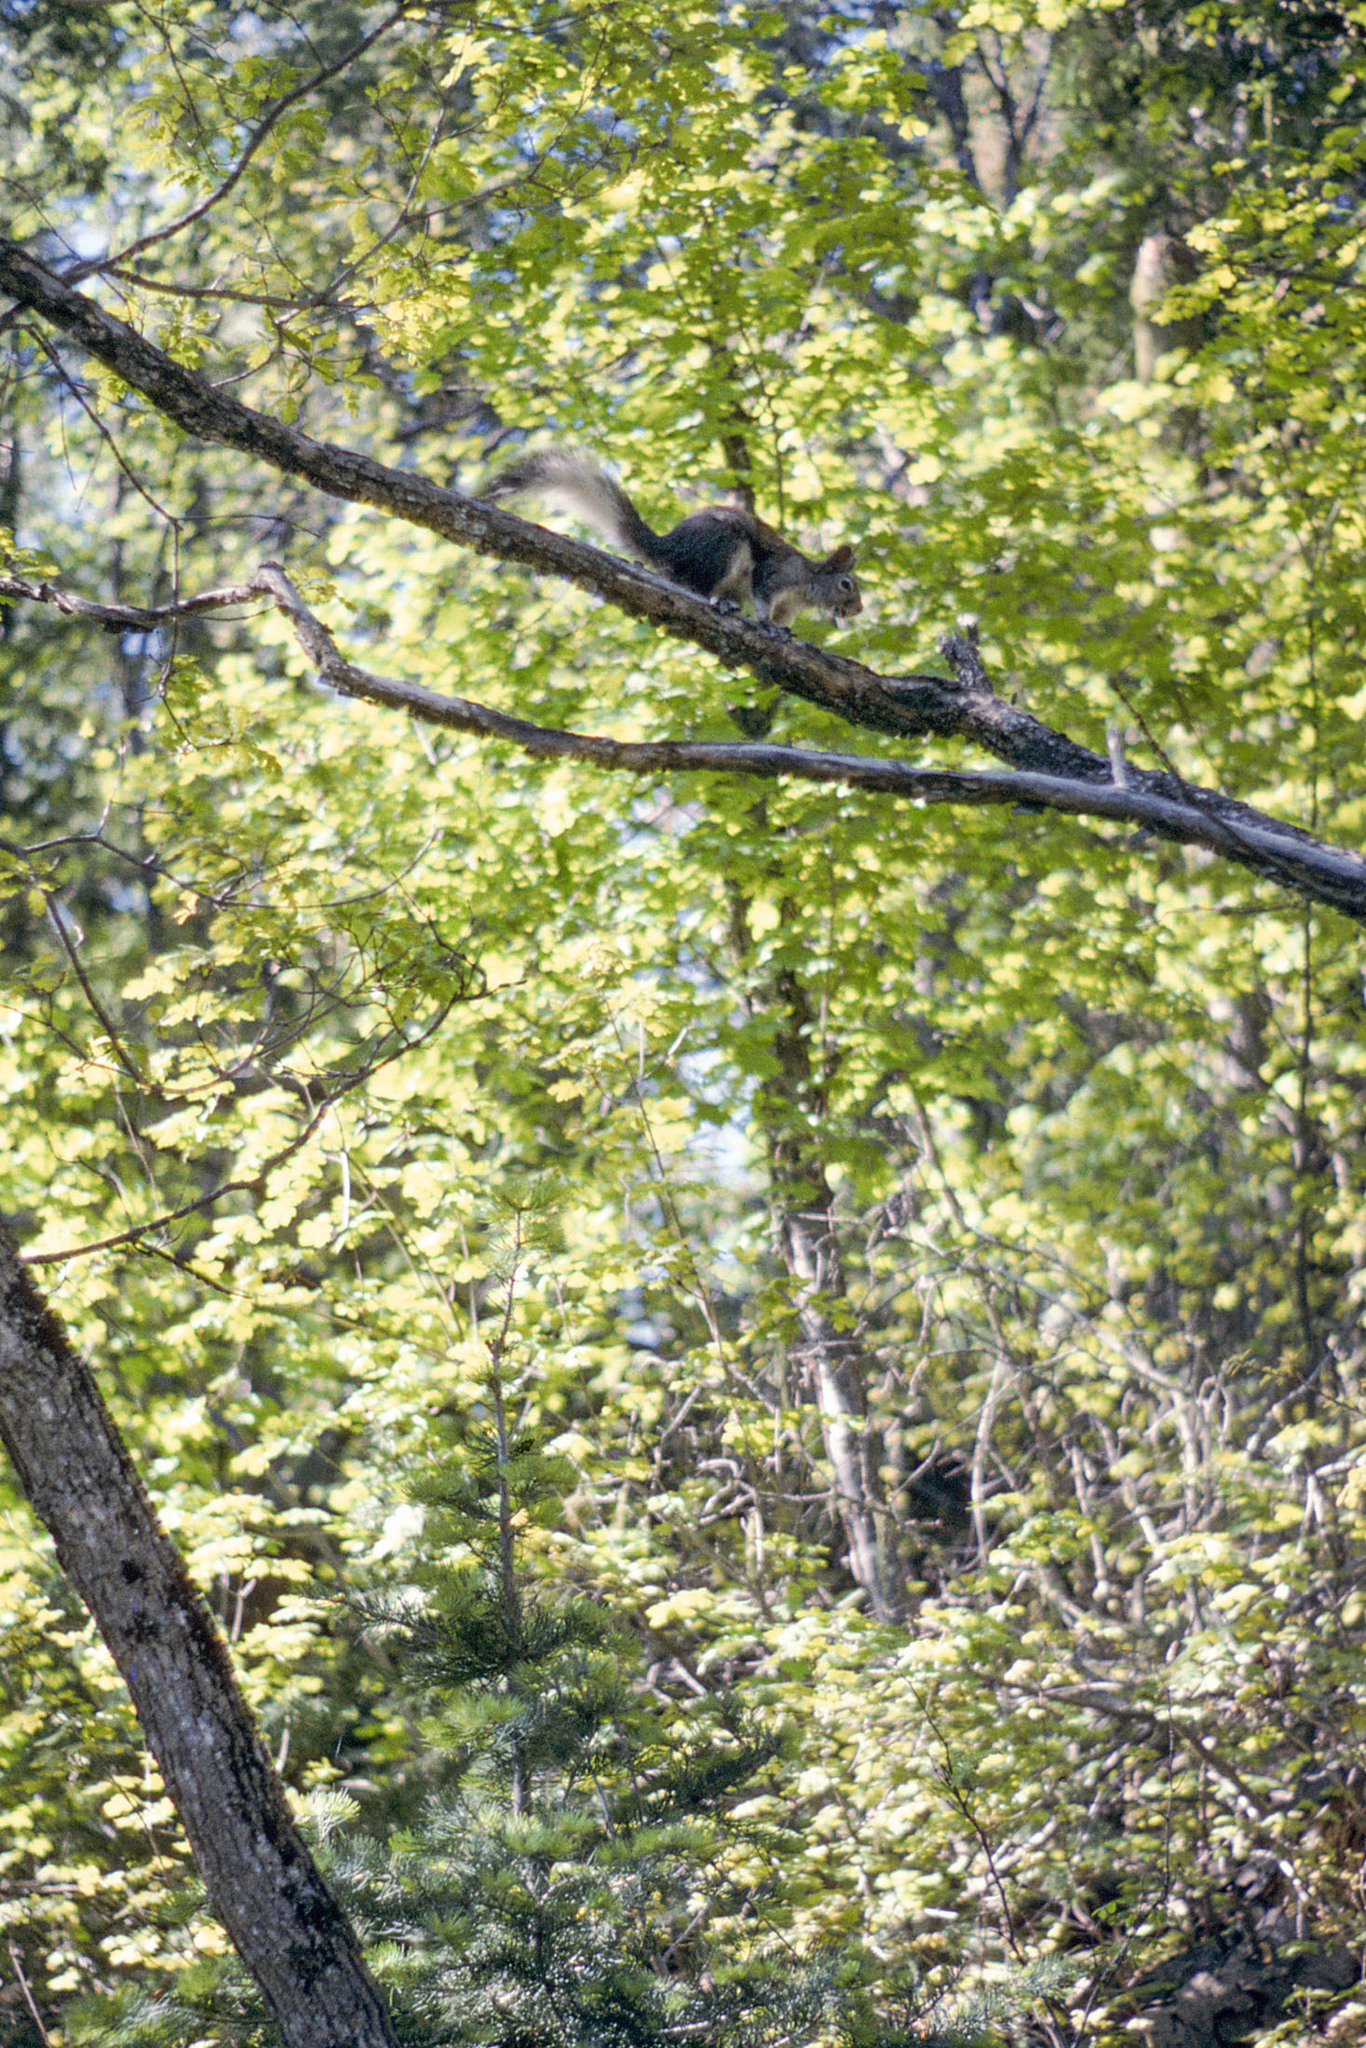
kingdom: Animalia
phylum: Chordata
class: Mammalia
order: Rodentia
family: Sciuridae
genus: Sciurus
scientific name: Sciurus aberti
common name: Abert's squirrel
